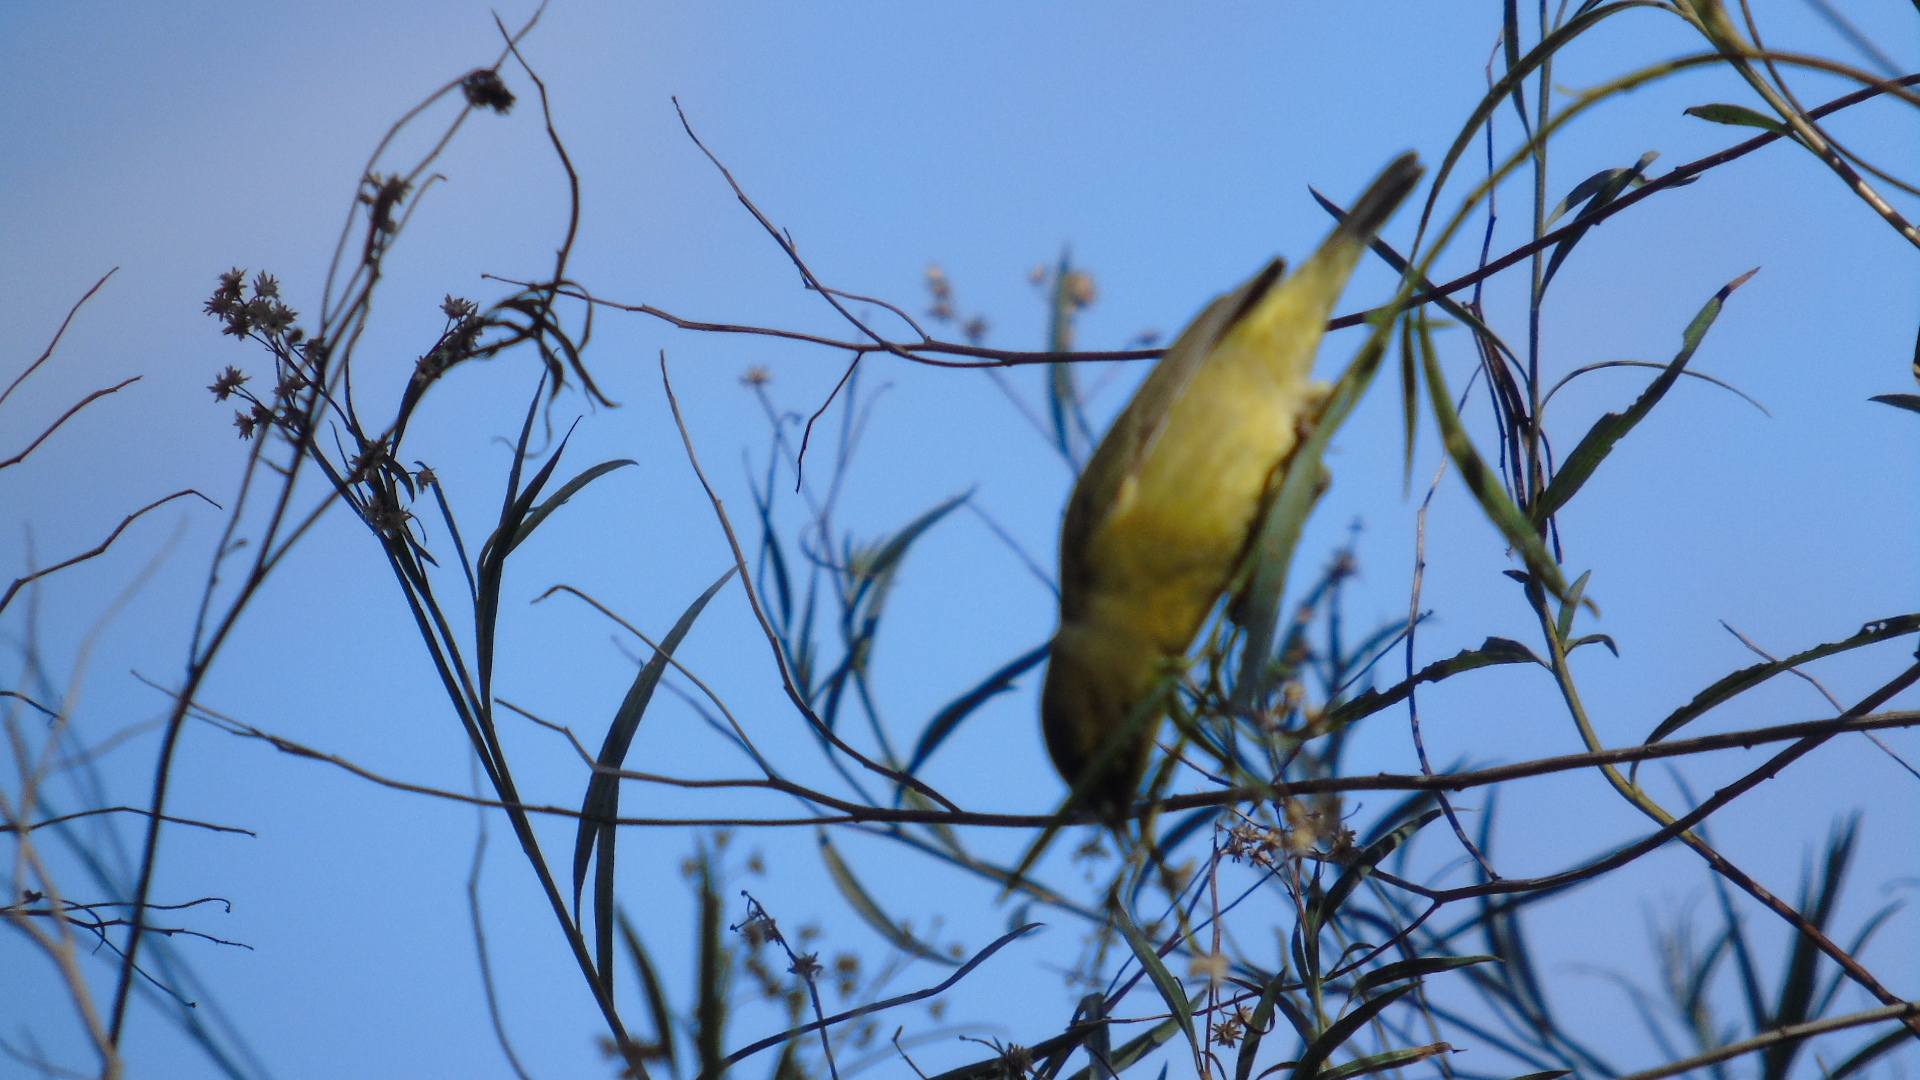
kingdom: Animalia
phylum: Chordata
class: Aves
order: Passeriformes
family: Parulidae
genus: Leiothlypis
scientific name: Leiothlypis celata
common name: Orange-crowned warbler
